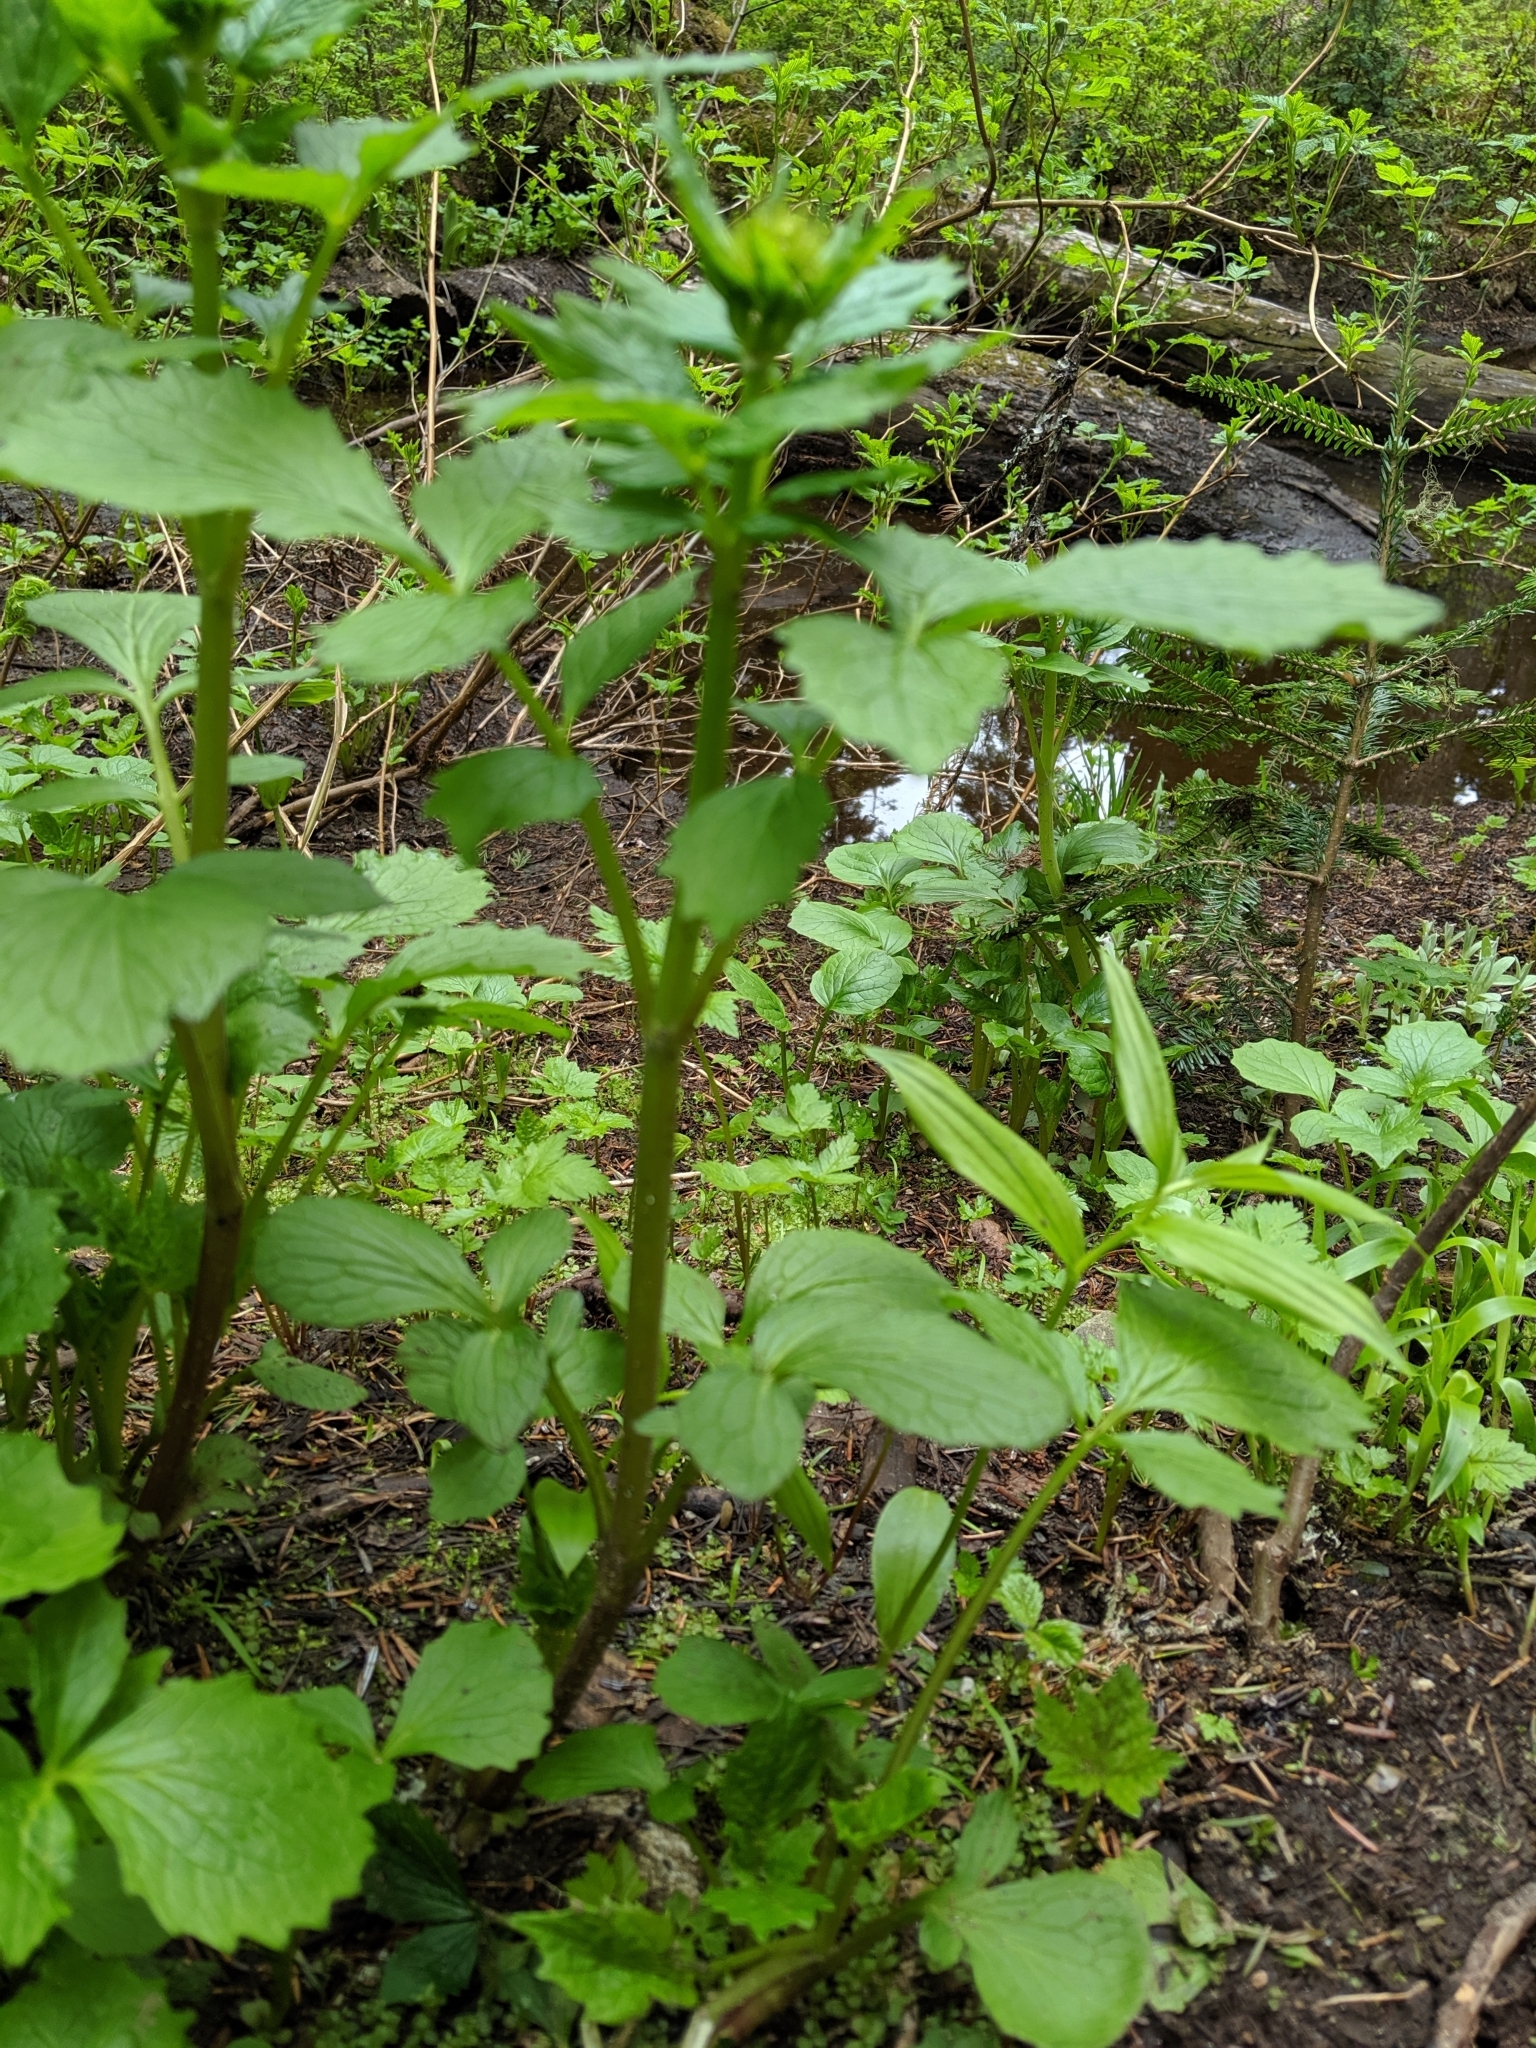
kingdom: Plantae
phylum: Tracheophyta
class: Magnoliopsida
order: Dipsacales
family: Caprifoliaceae
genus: Valeriana
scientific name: Valeriana sitchensis
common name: Pacific valerian
